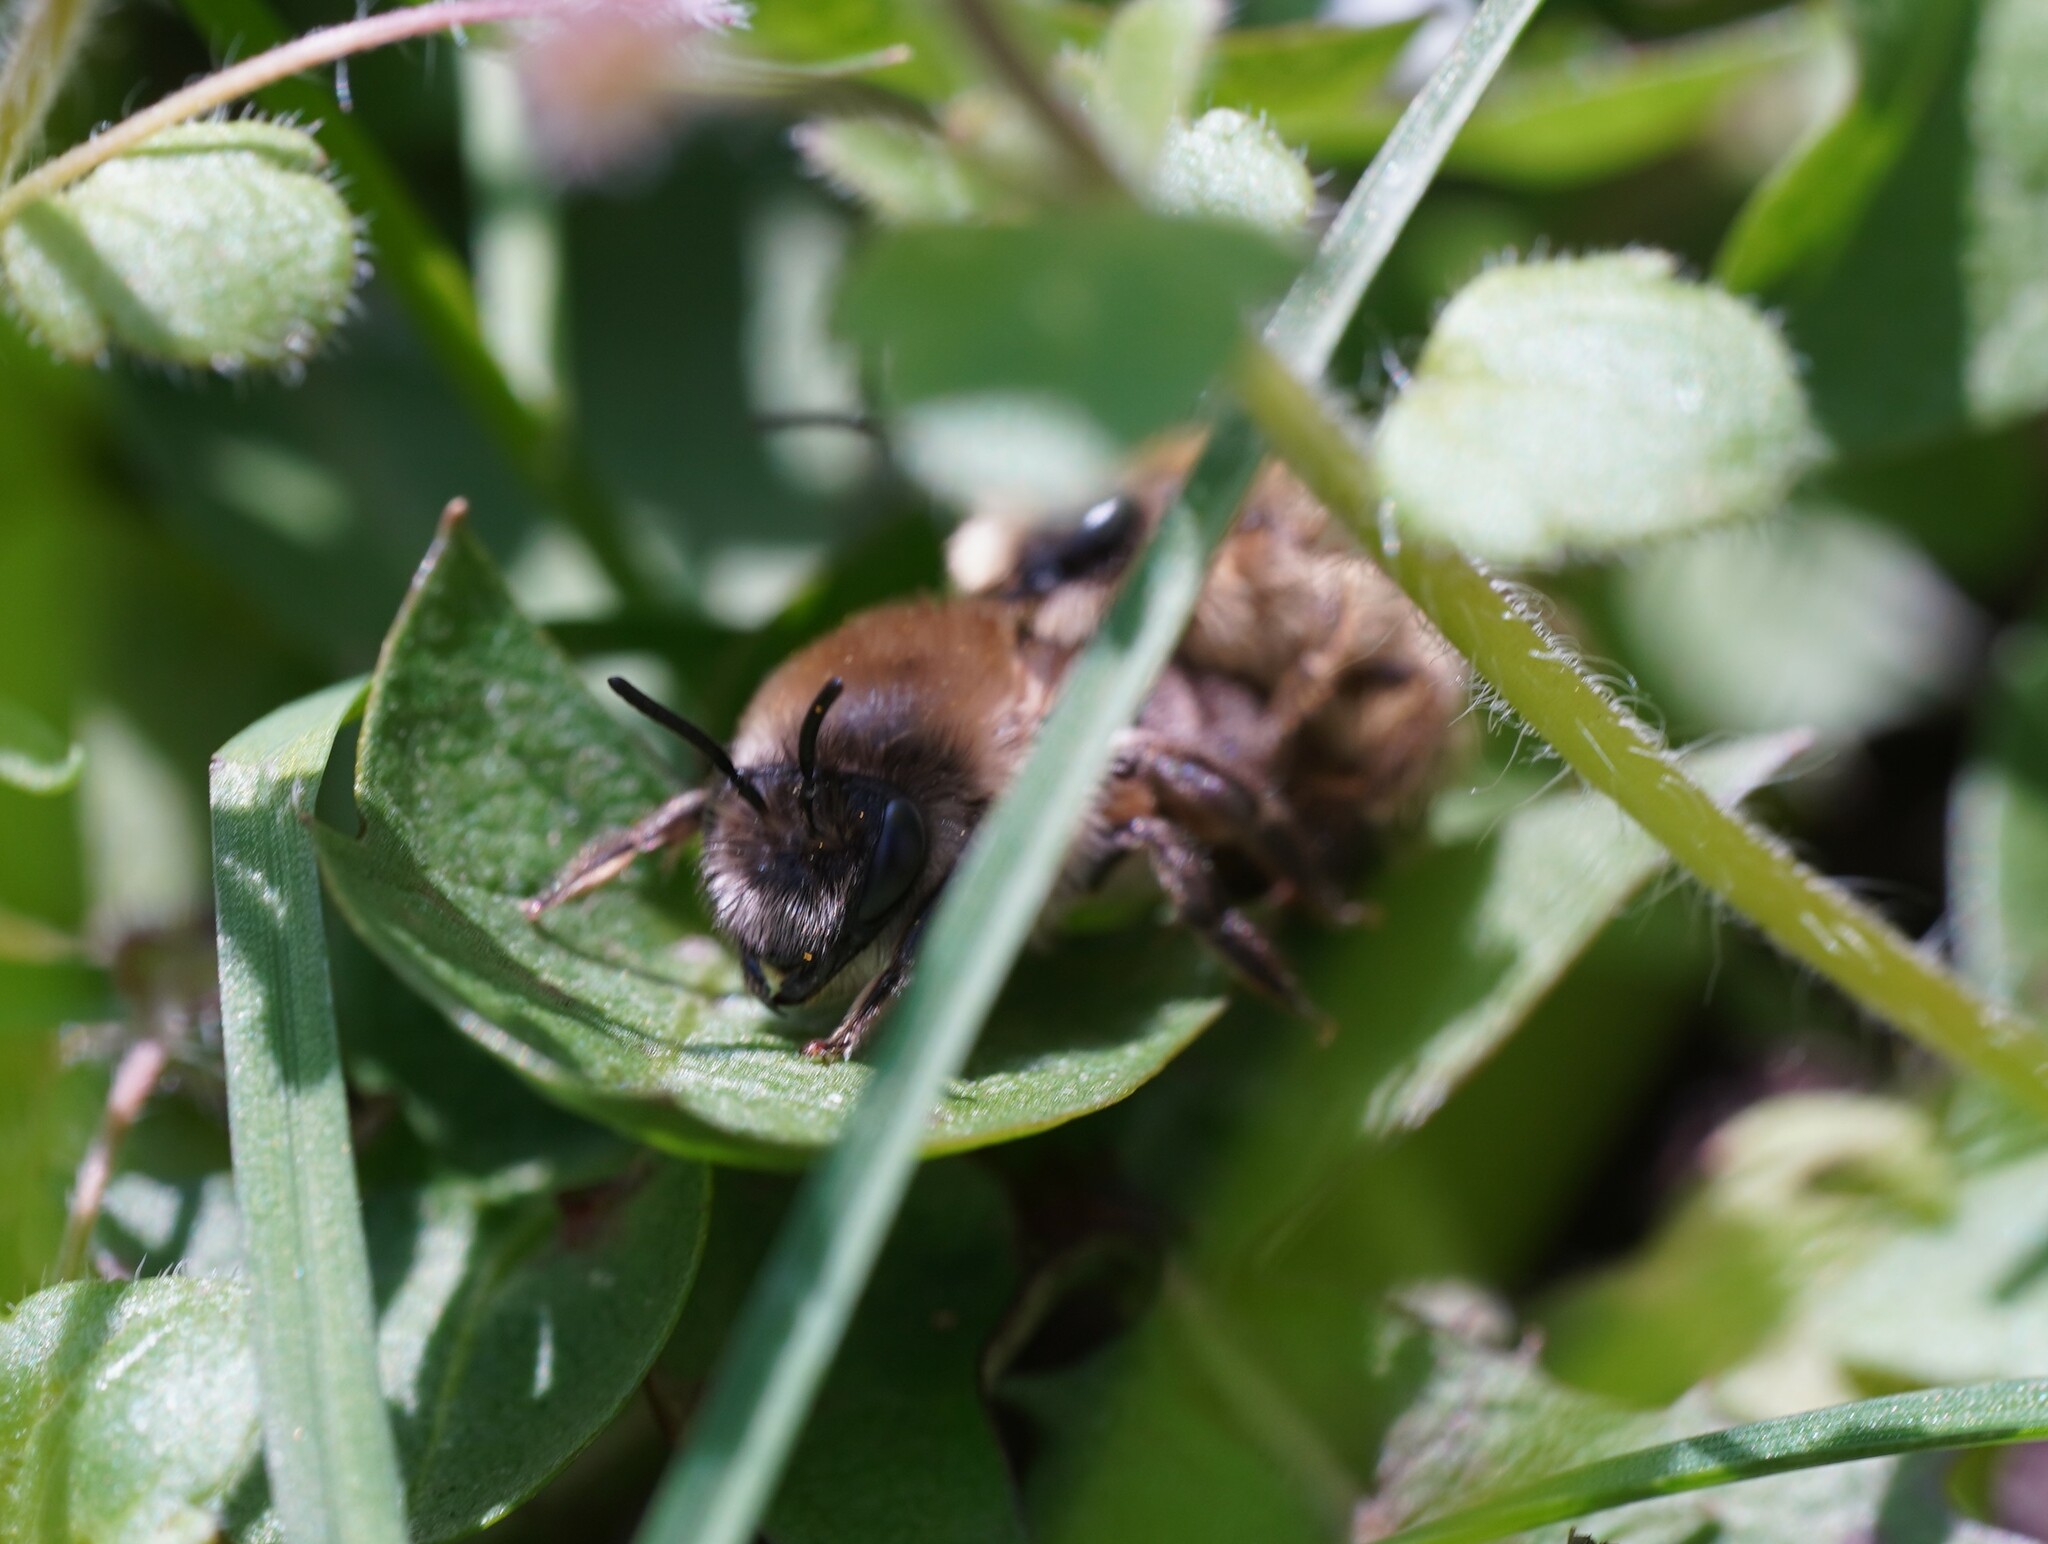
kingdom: Animalia
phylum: Arthropoda
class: Insecta
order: Hymenoptera
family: Colletidae
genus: Colletes
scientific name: Colletes cunicularius
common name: Early colletes
